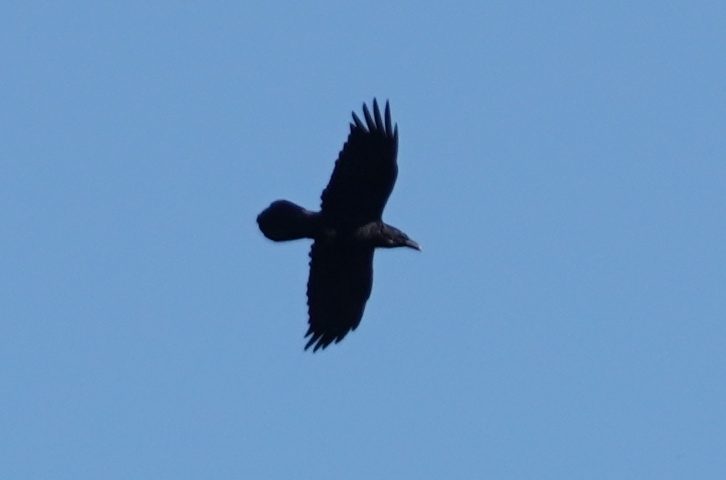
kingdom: Animalia
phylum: Chordata
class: Aves
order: Passeriformes
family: Corvidae
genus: Corvus
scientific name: Corvus corax
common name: Common raven
